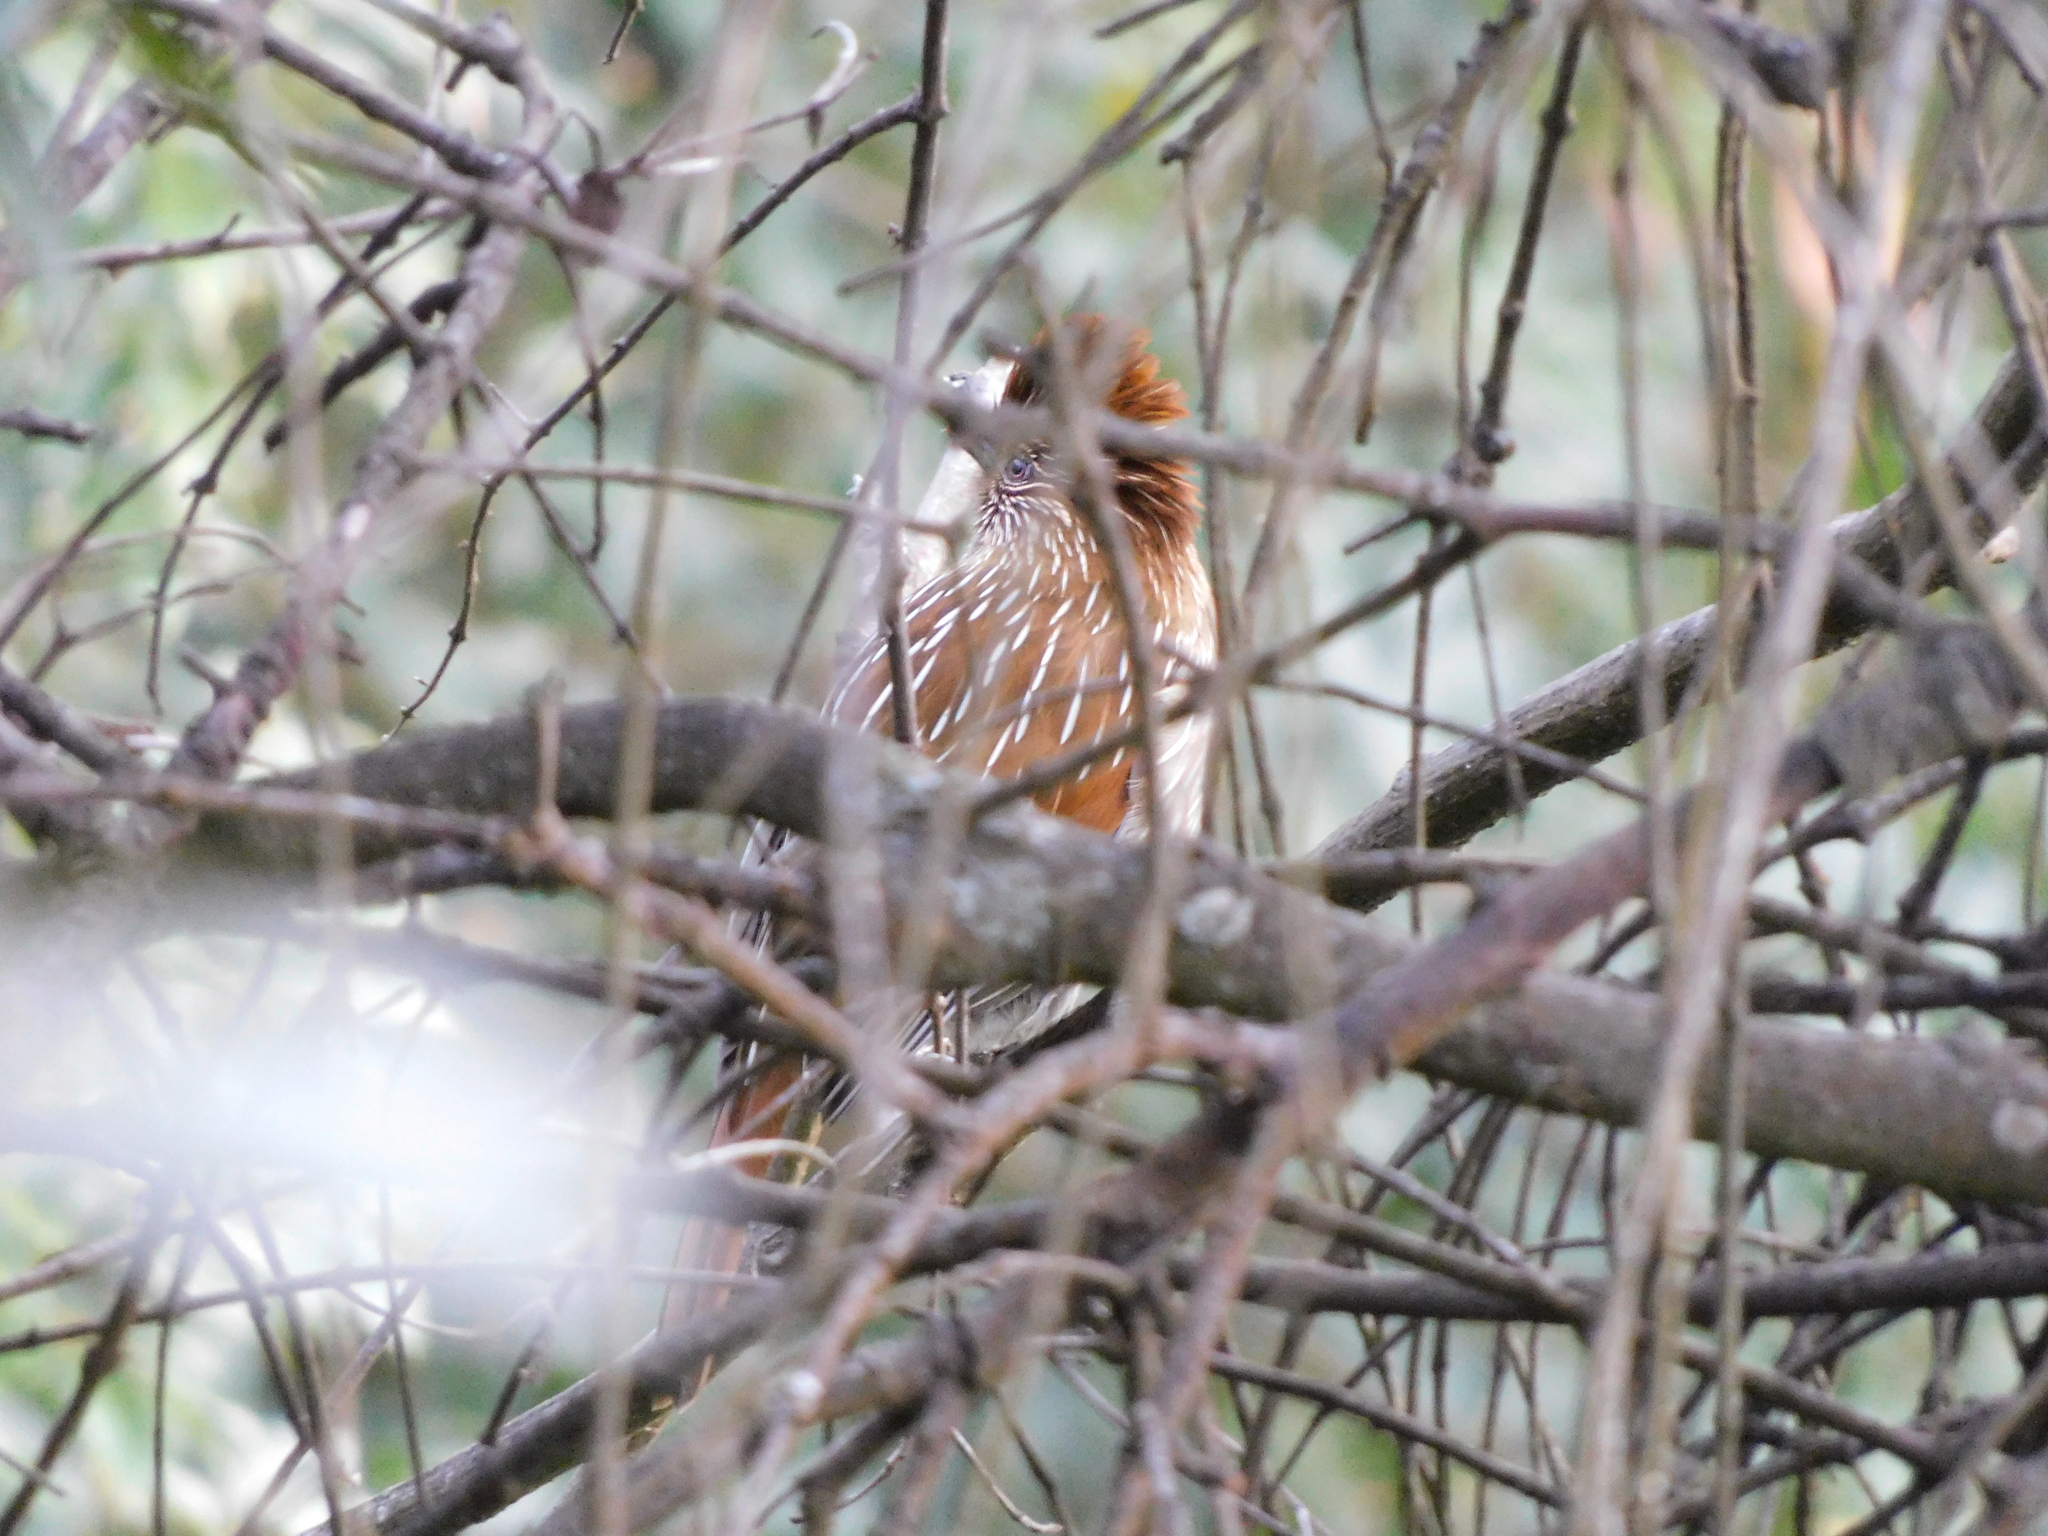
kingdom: Animalia
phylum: Chordata
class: Aves
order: Passeriformes
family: Leiothrichidae
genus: Garrulax
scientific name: Garrulax striatus
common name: Striated laughingthrush
